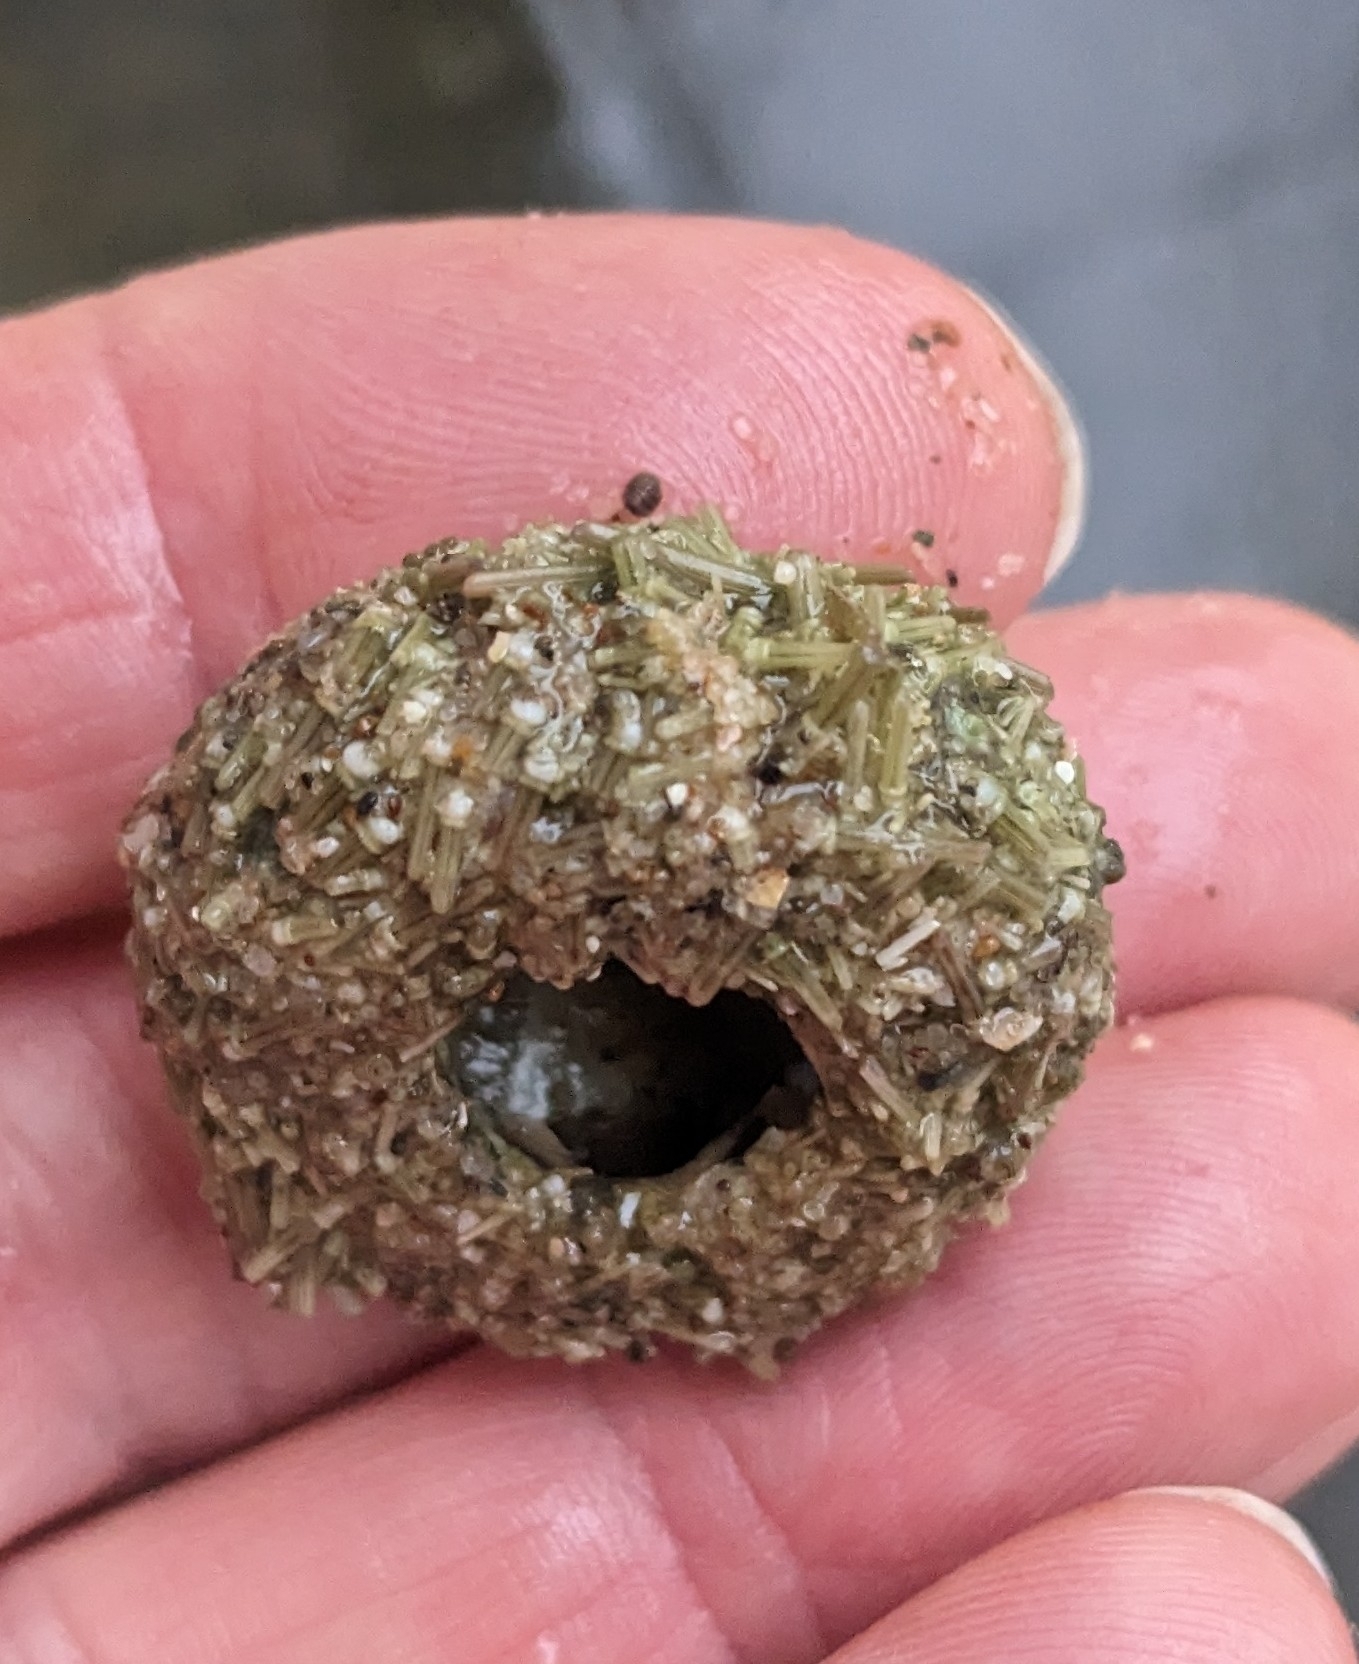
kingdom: Animalia
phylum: Echinodermata
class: Echinoidea
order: Camarodonta
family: Parechinidae
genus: Psammechinus
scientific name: Psammechinus miliaris
